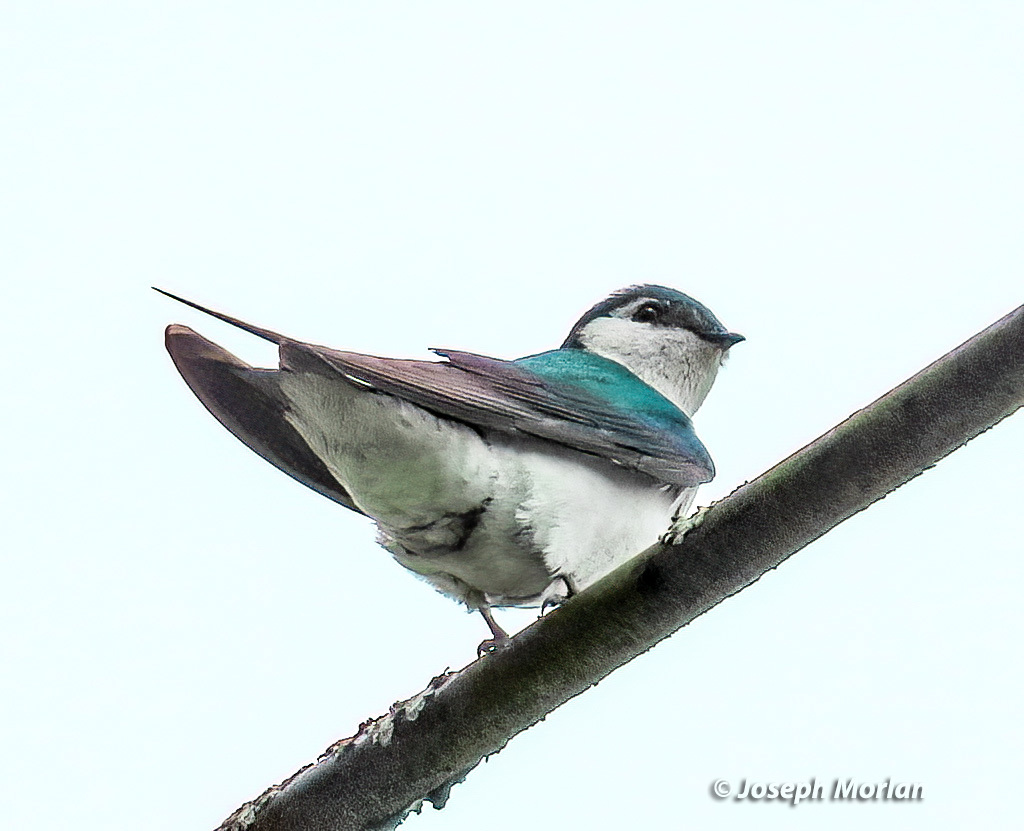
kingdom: Animalia
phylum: Chordata
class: Aves
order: Passeriformes
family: Hirundinidae
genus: Tachycineta
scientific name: Tachycineta thalassina
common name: Violet-green swallow
